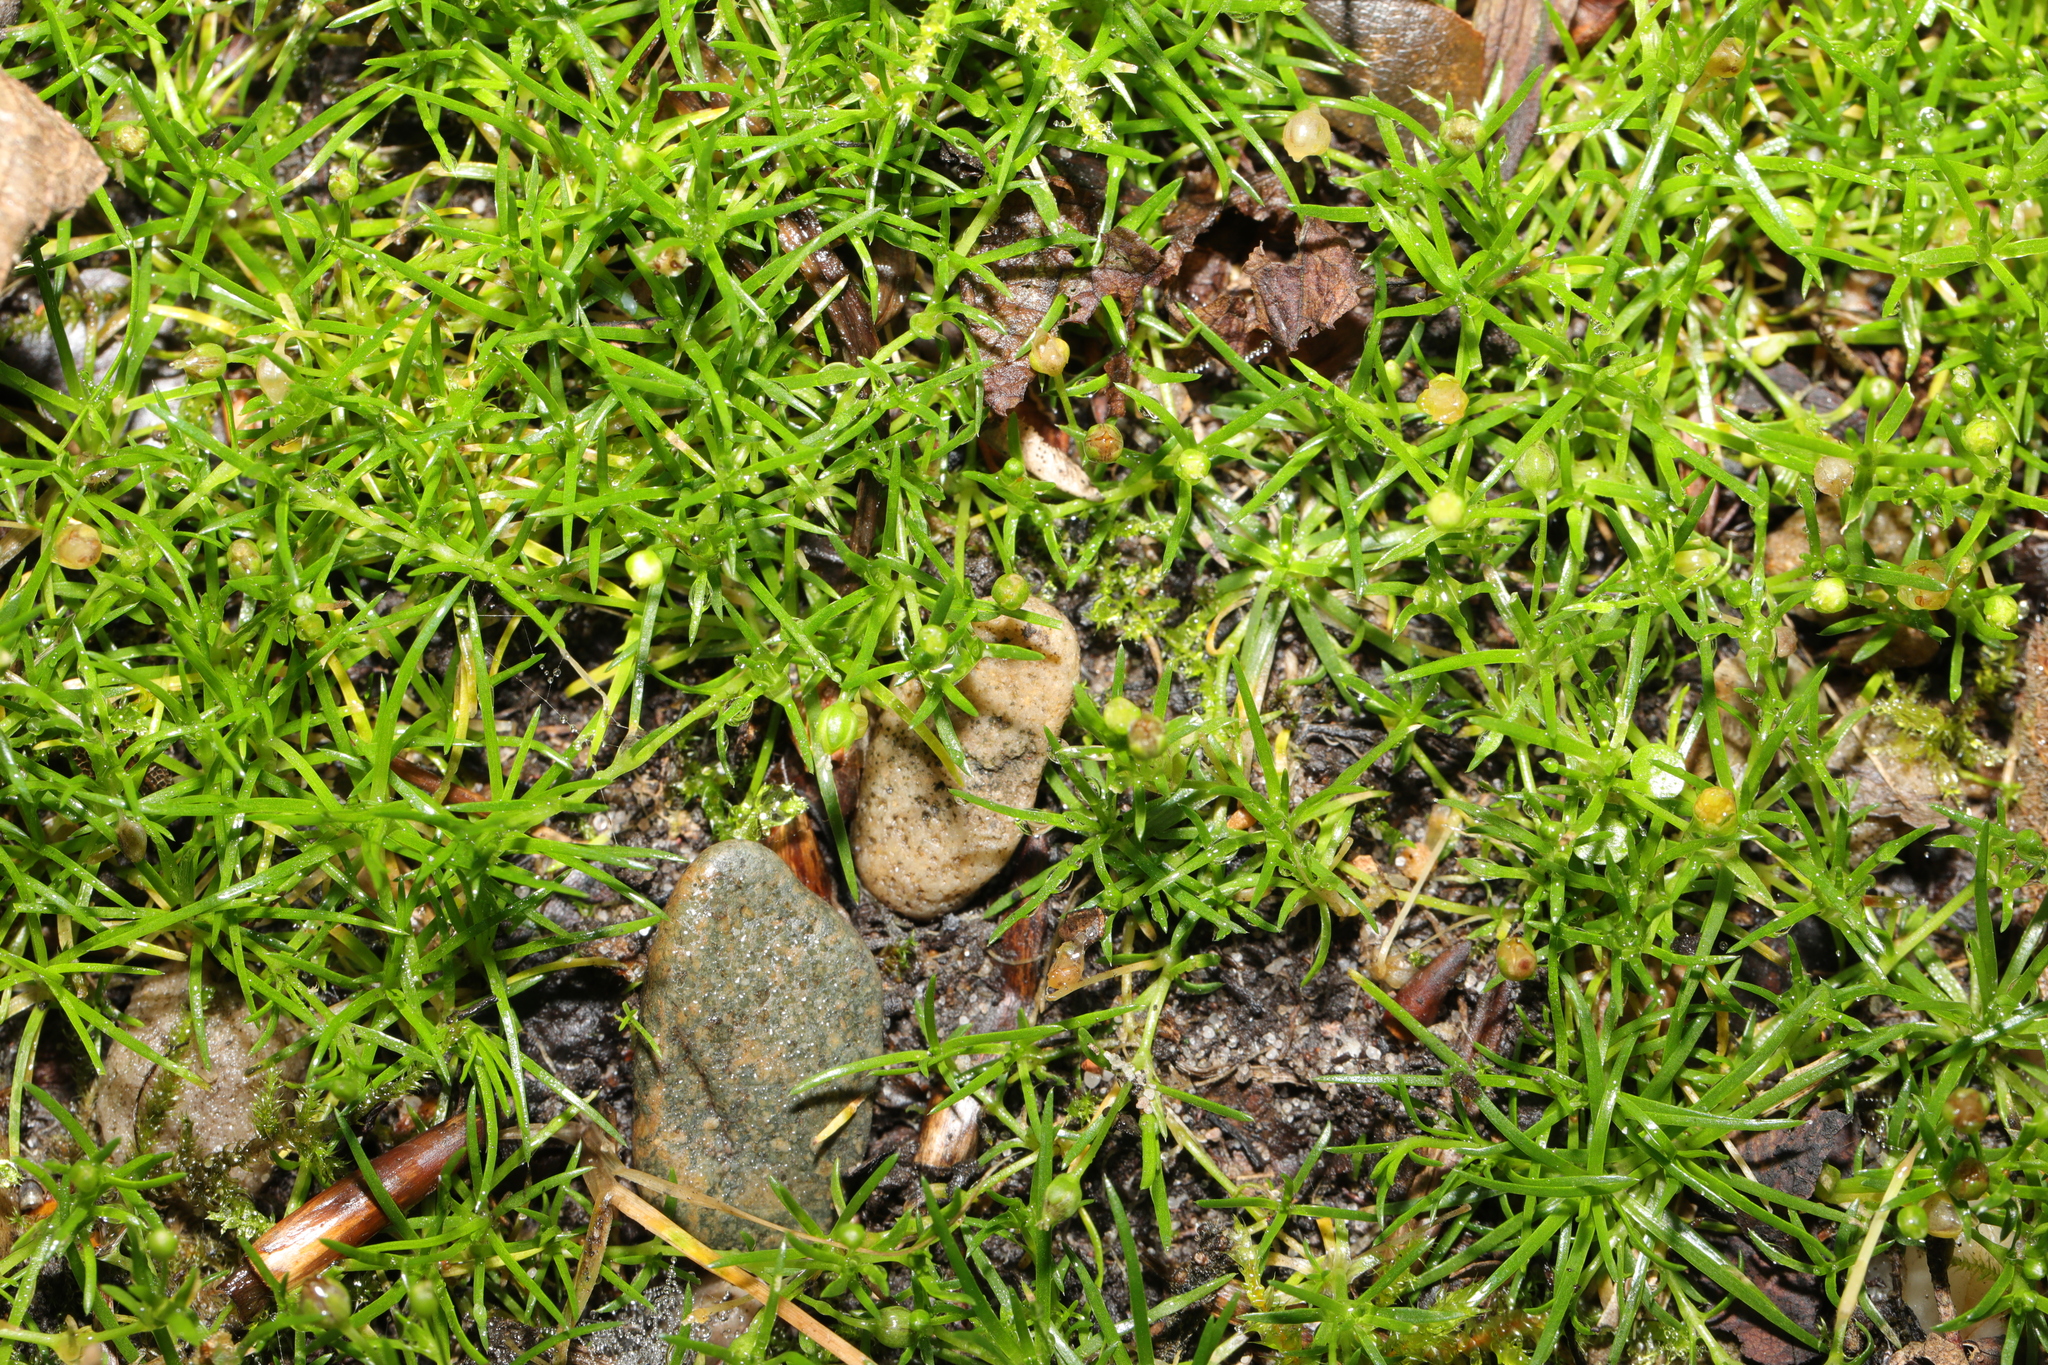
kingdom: Plantae
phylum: Tracheophyta
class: Magnoliopsida
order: Caryophyllales
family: Caryophyllaceae
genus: Sagina
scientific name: Sagina procumbens
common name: Procumbent pearlwort
